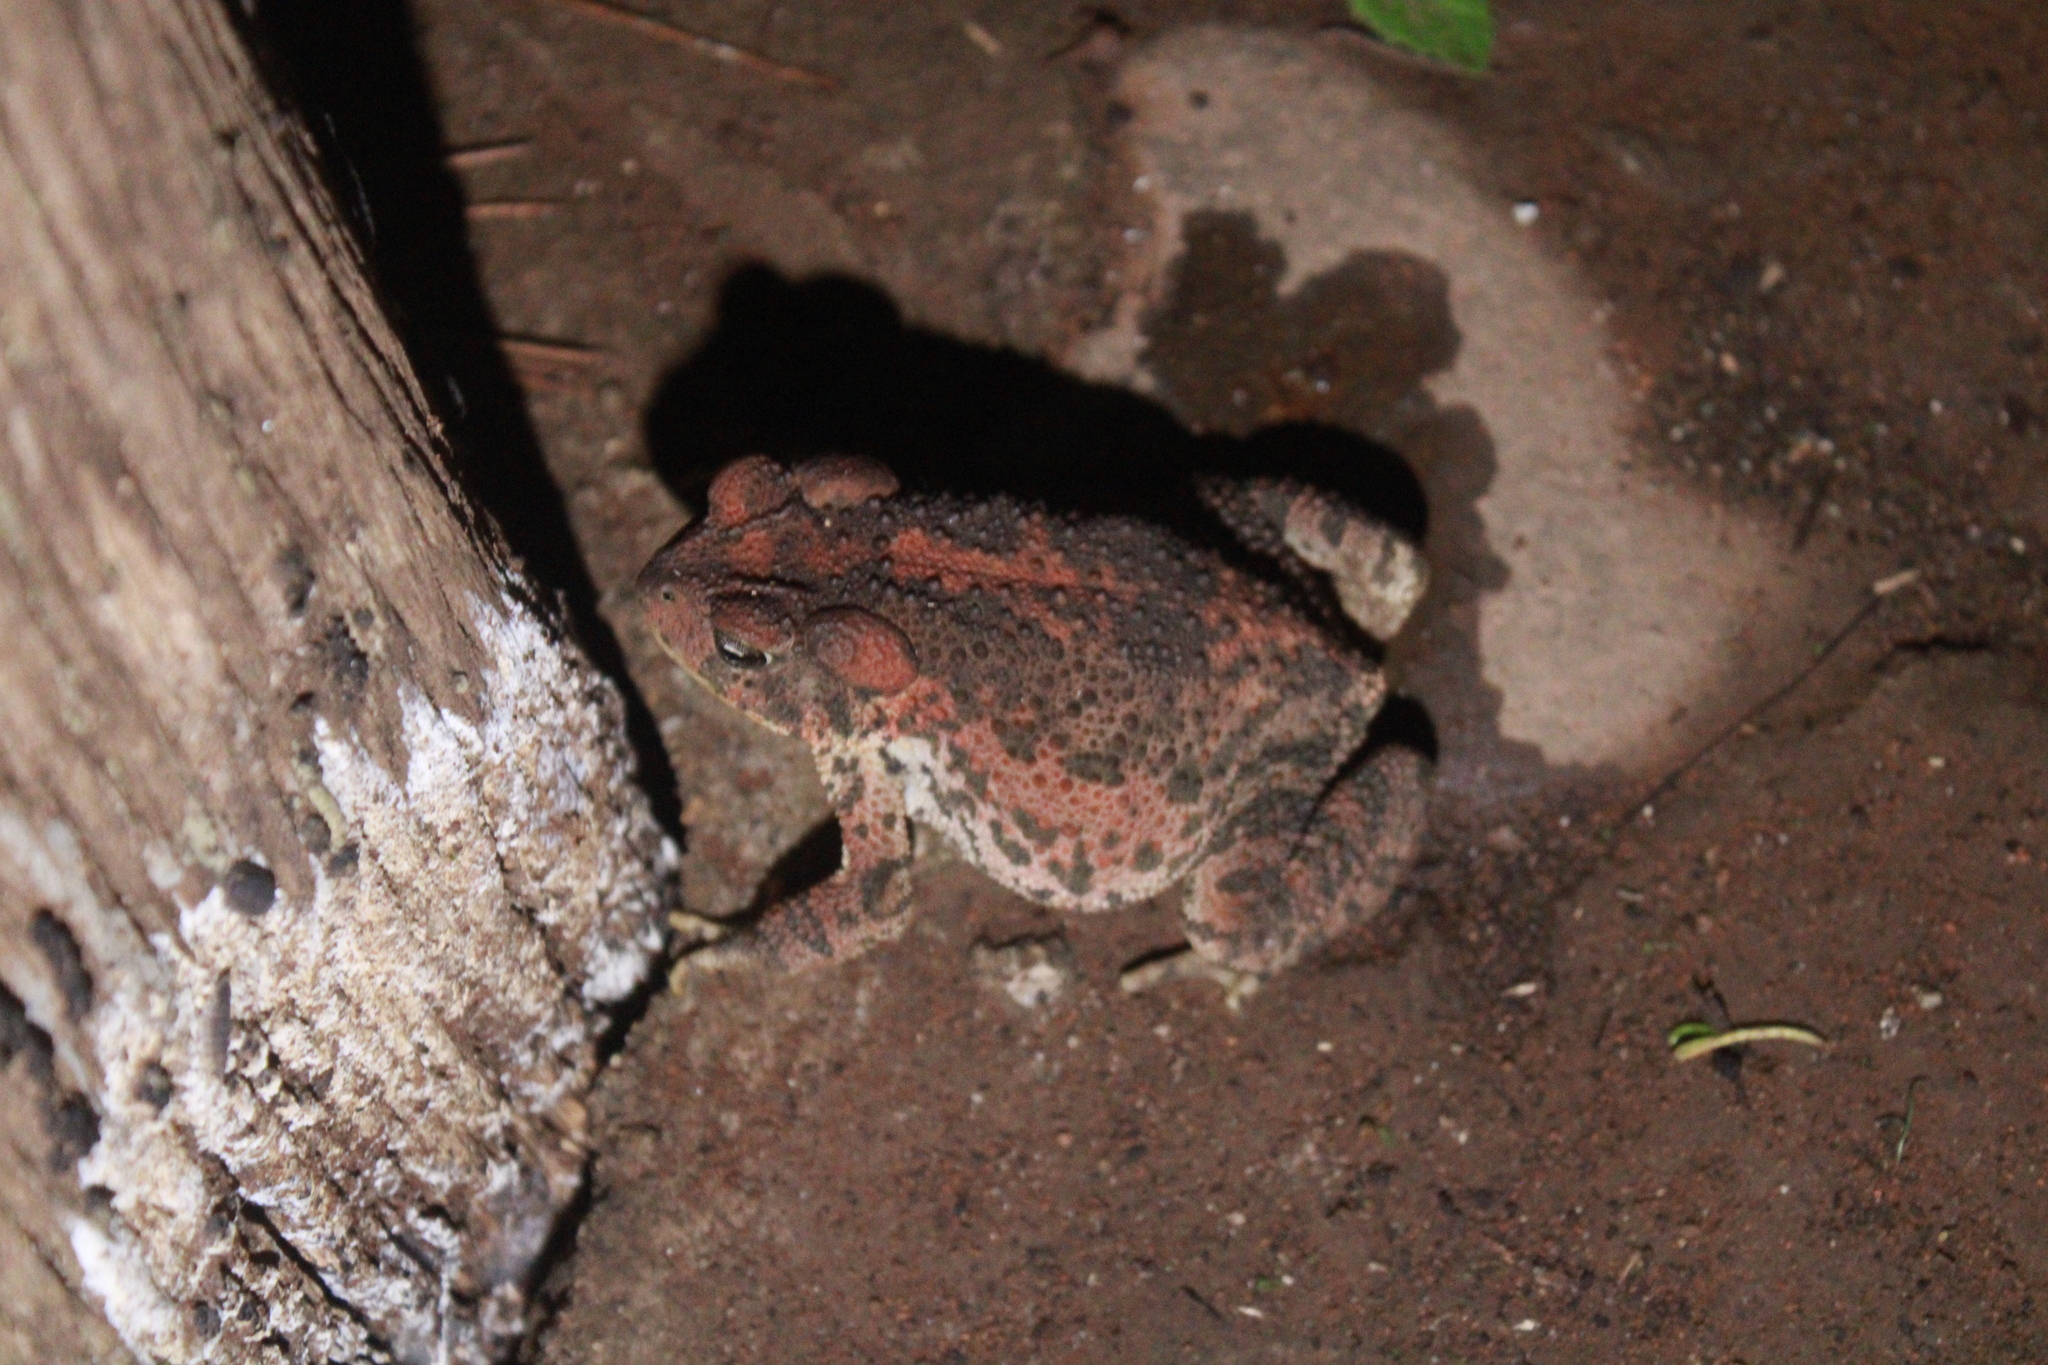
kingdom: Animalia
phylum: Chordata
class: Amphibia
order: Anura
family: Bufonidae
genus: Incilius
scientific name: Incilius occidentalis
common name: Pine toad
